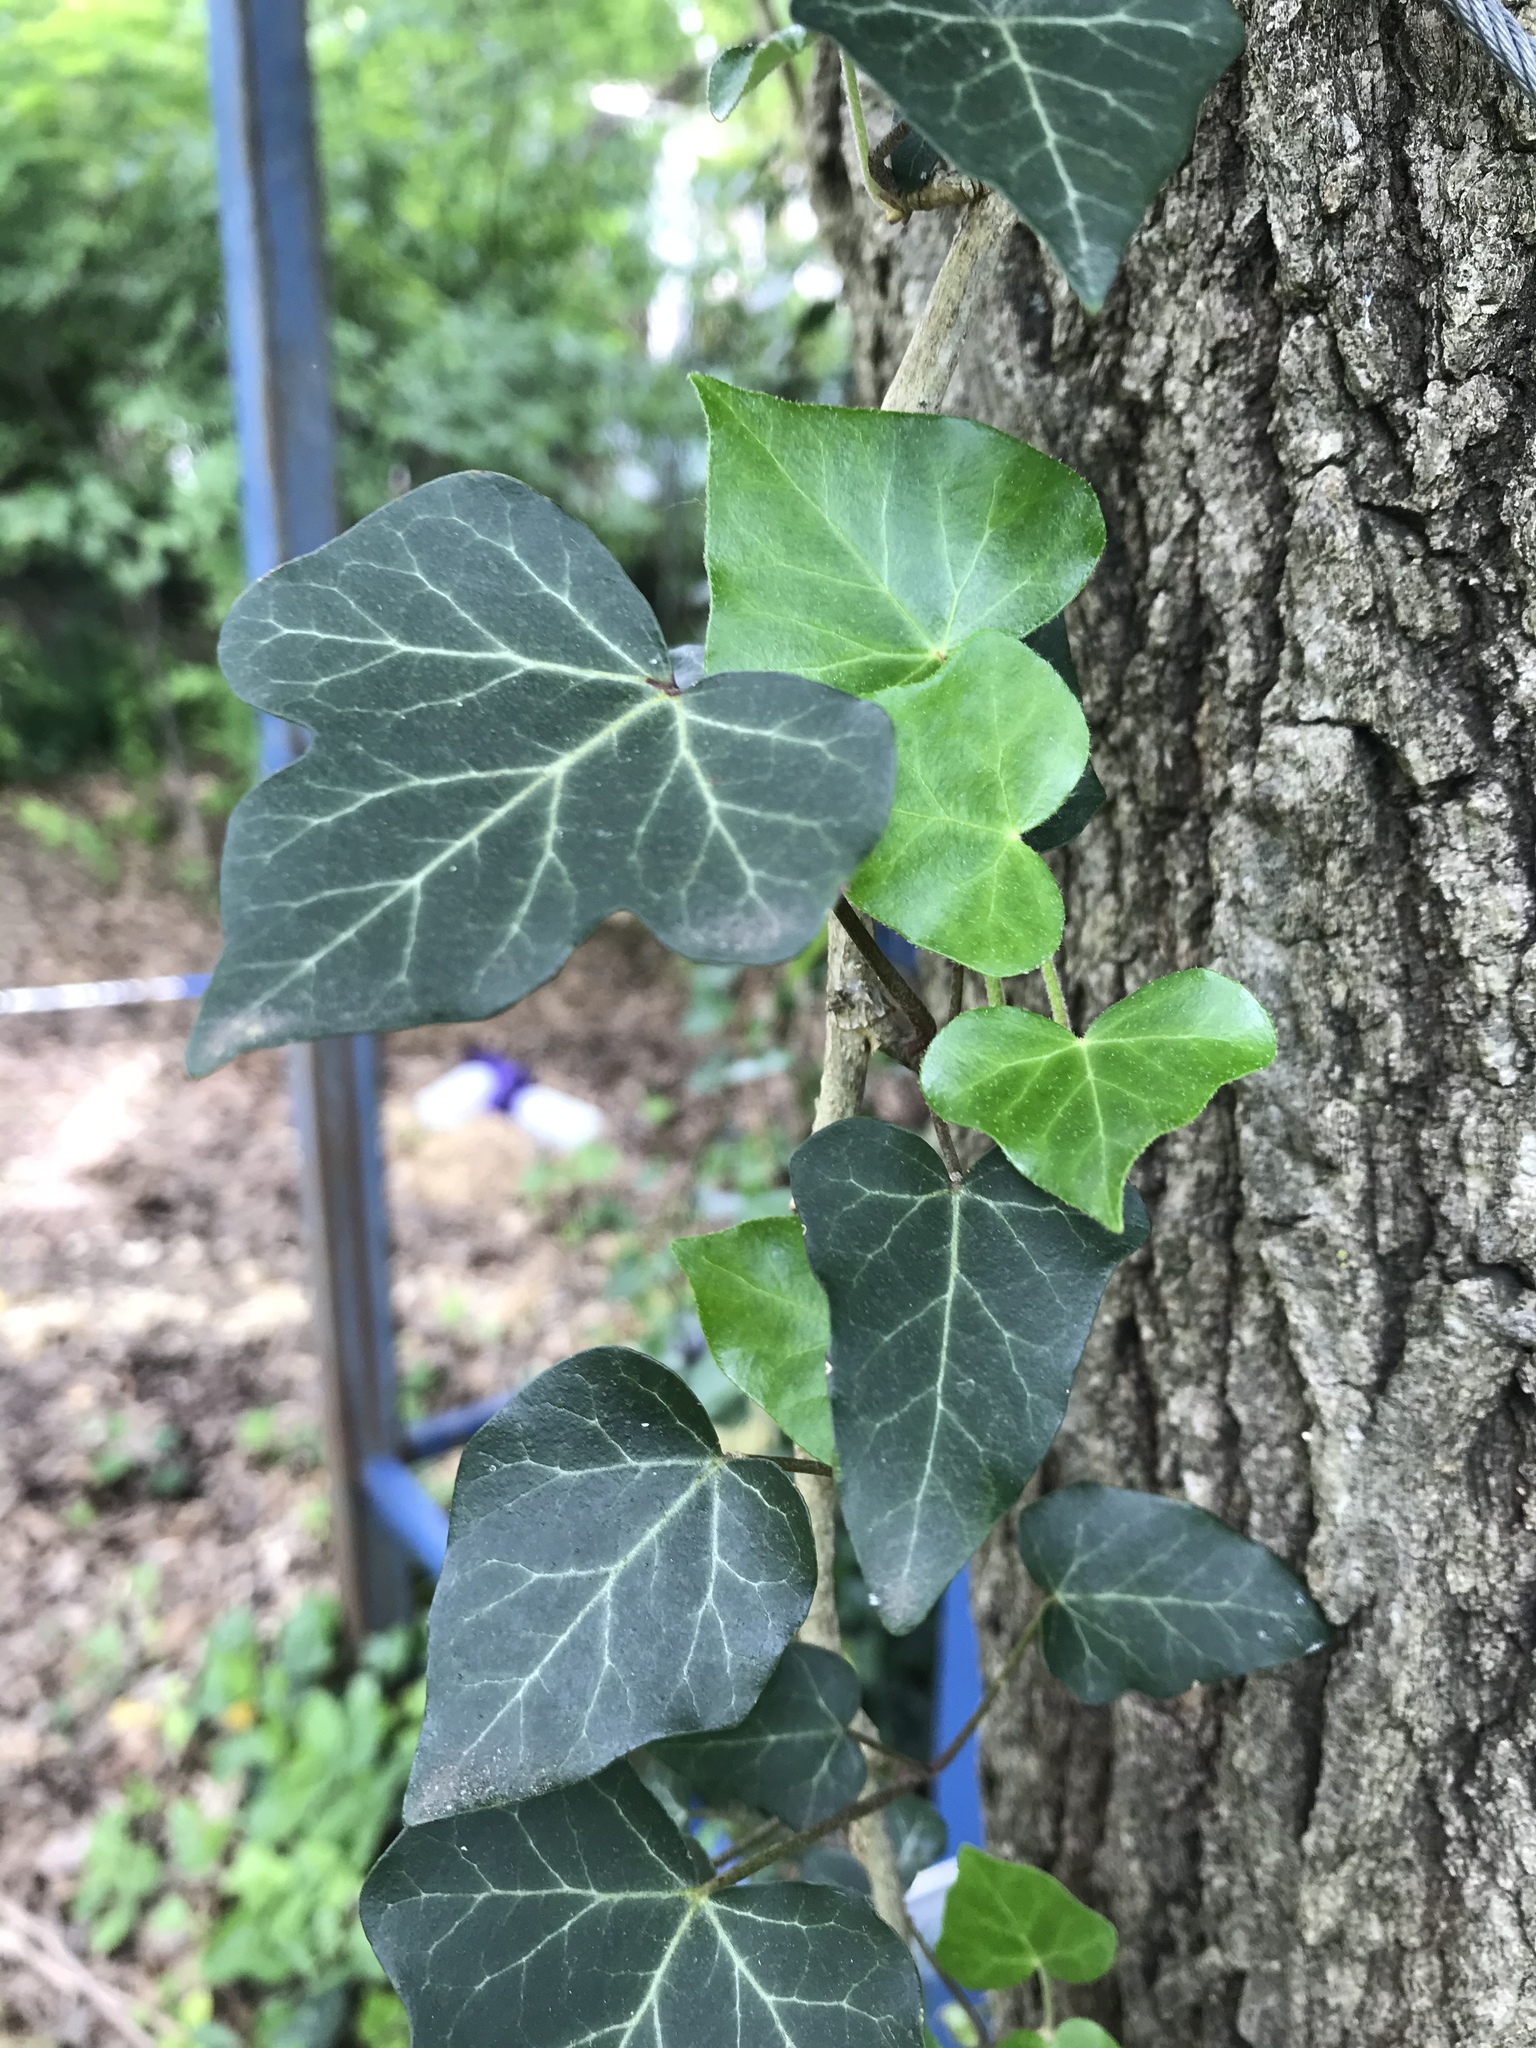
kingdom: Plantae
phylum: Tracheophyta
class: Magnoliopsida
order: Apiales
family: Araliaceae
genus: Hedera
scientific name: Hedera helix
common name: Ivy
